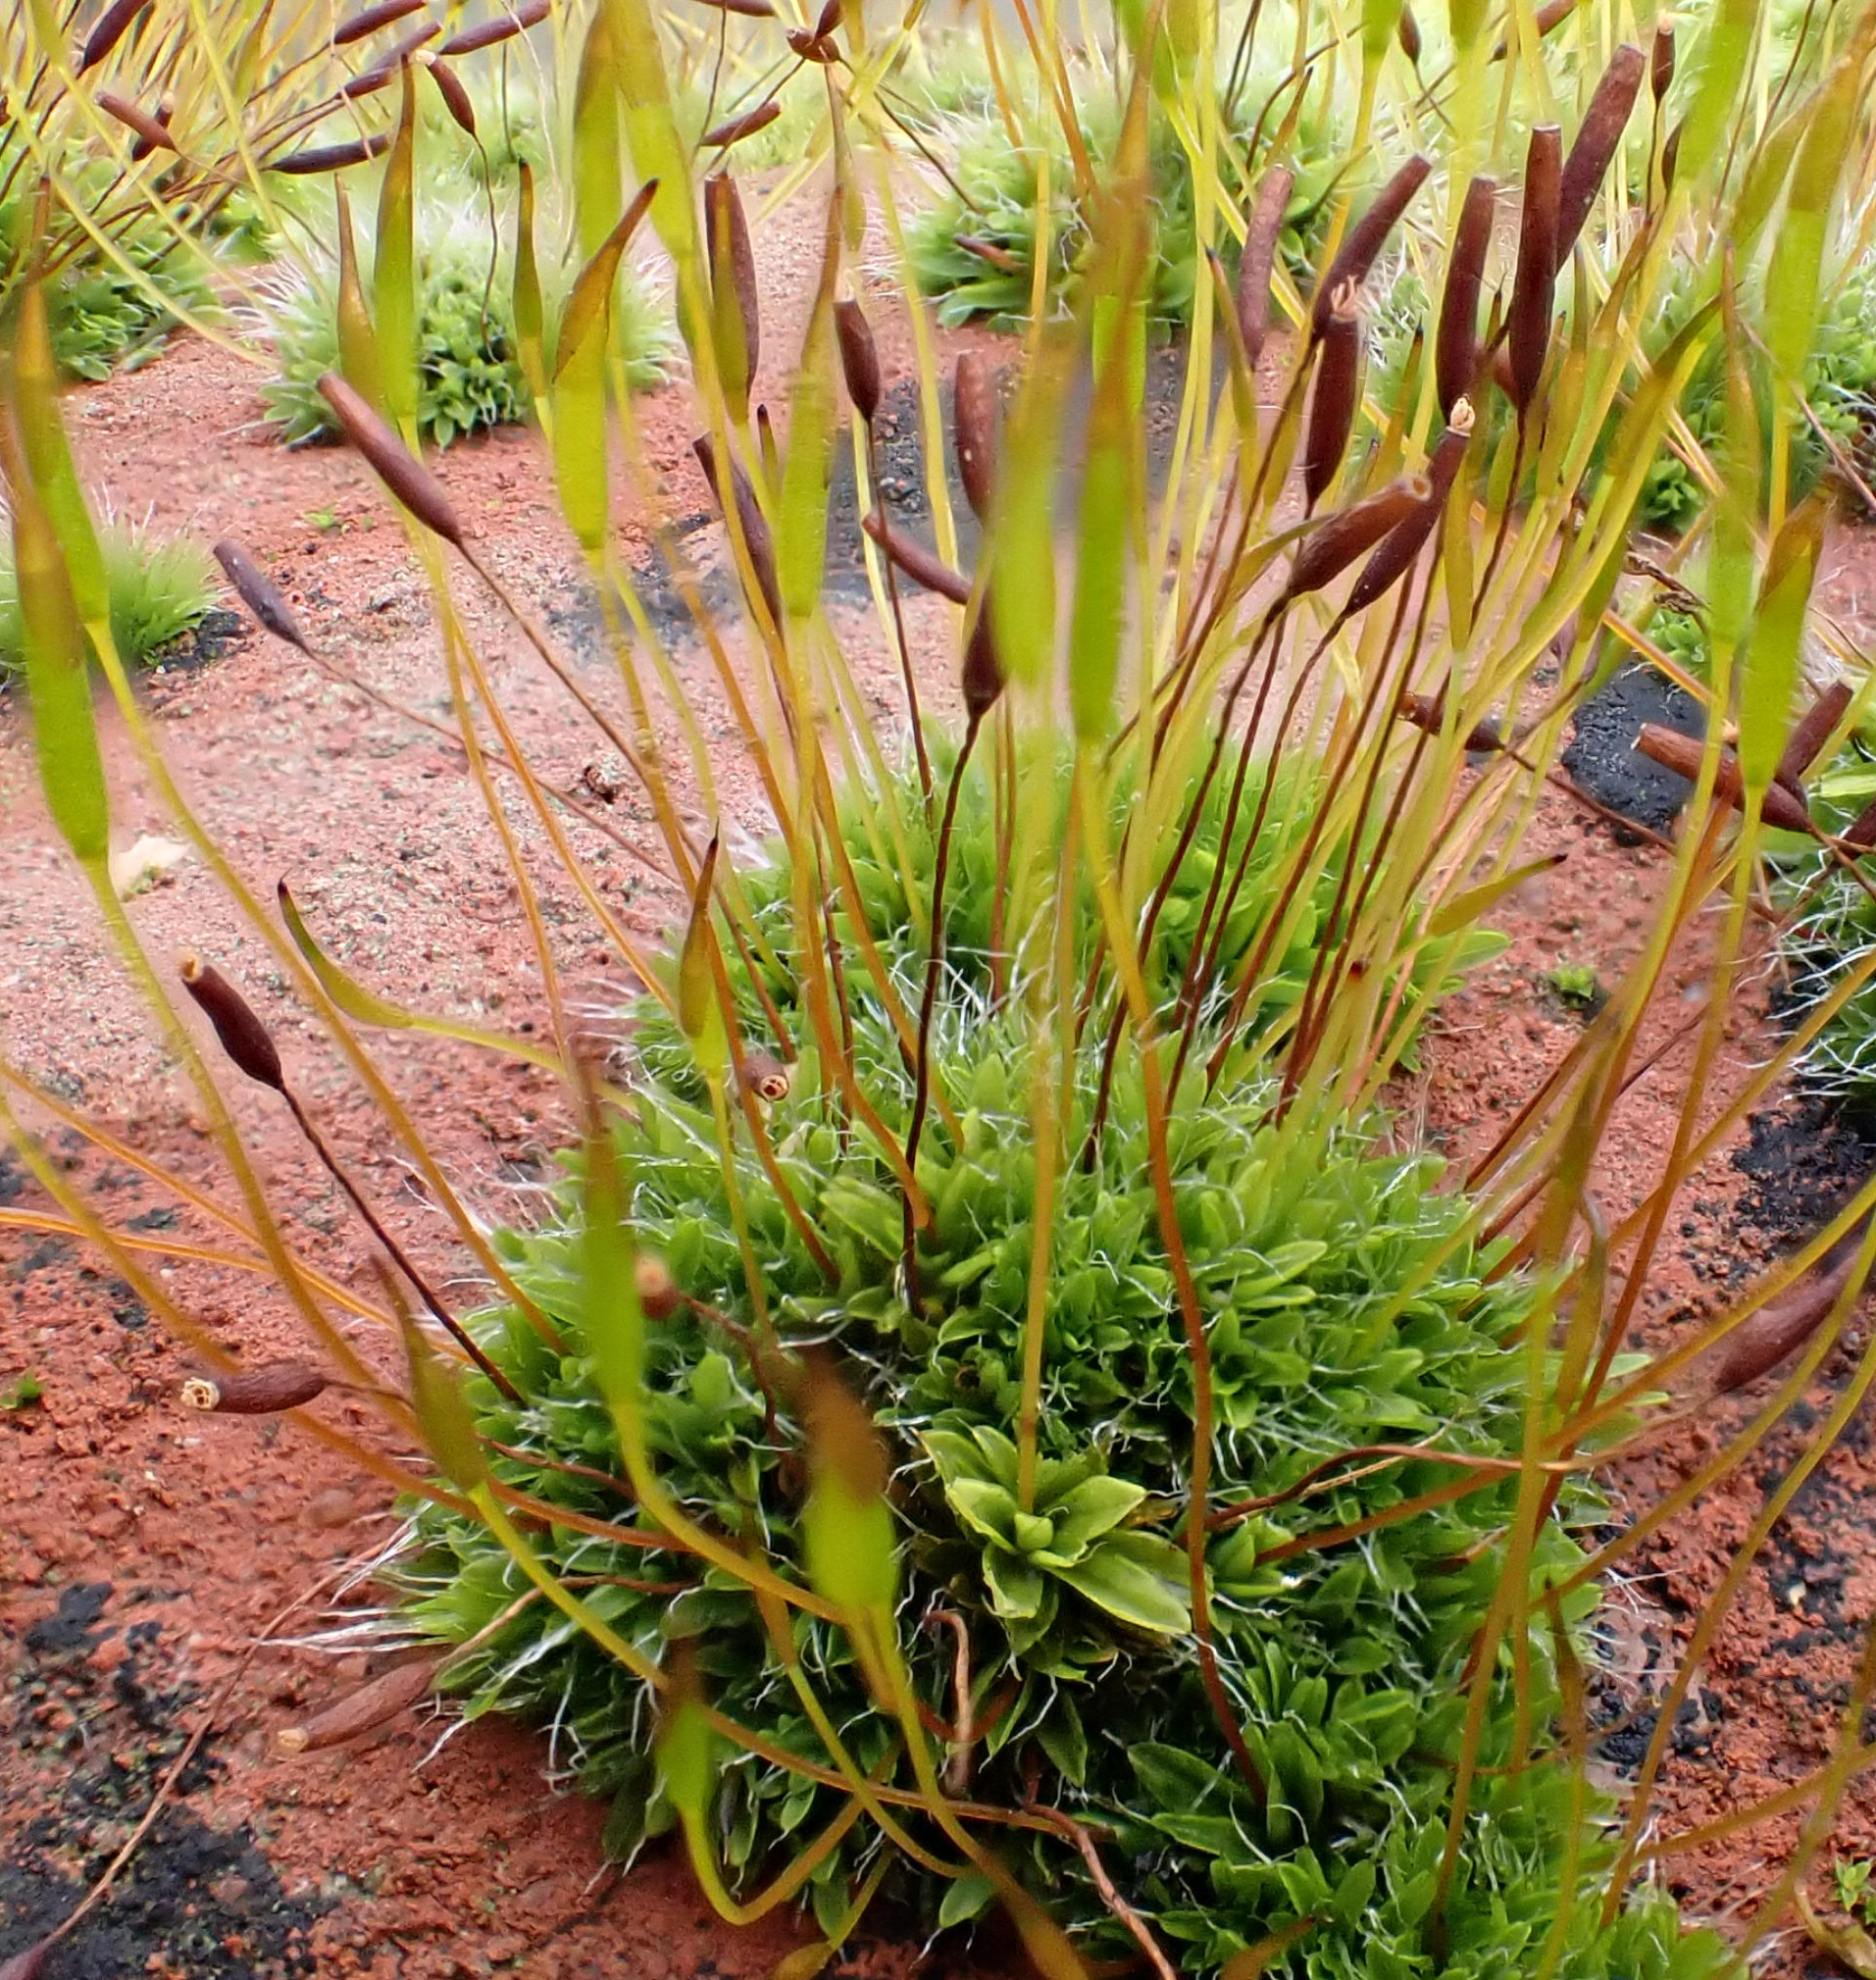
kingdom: Plantae
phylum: Bryophyta
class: Bryopsida
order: Pottiales
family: Pottiaceae
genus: Tortula
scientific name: Tortula muralis
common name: Wall screw-moss
